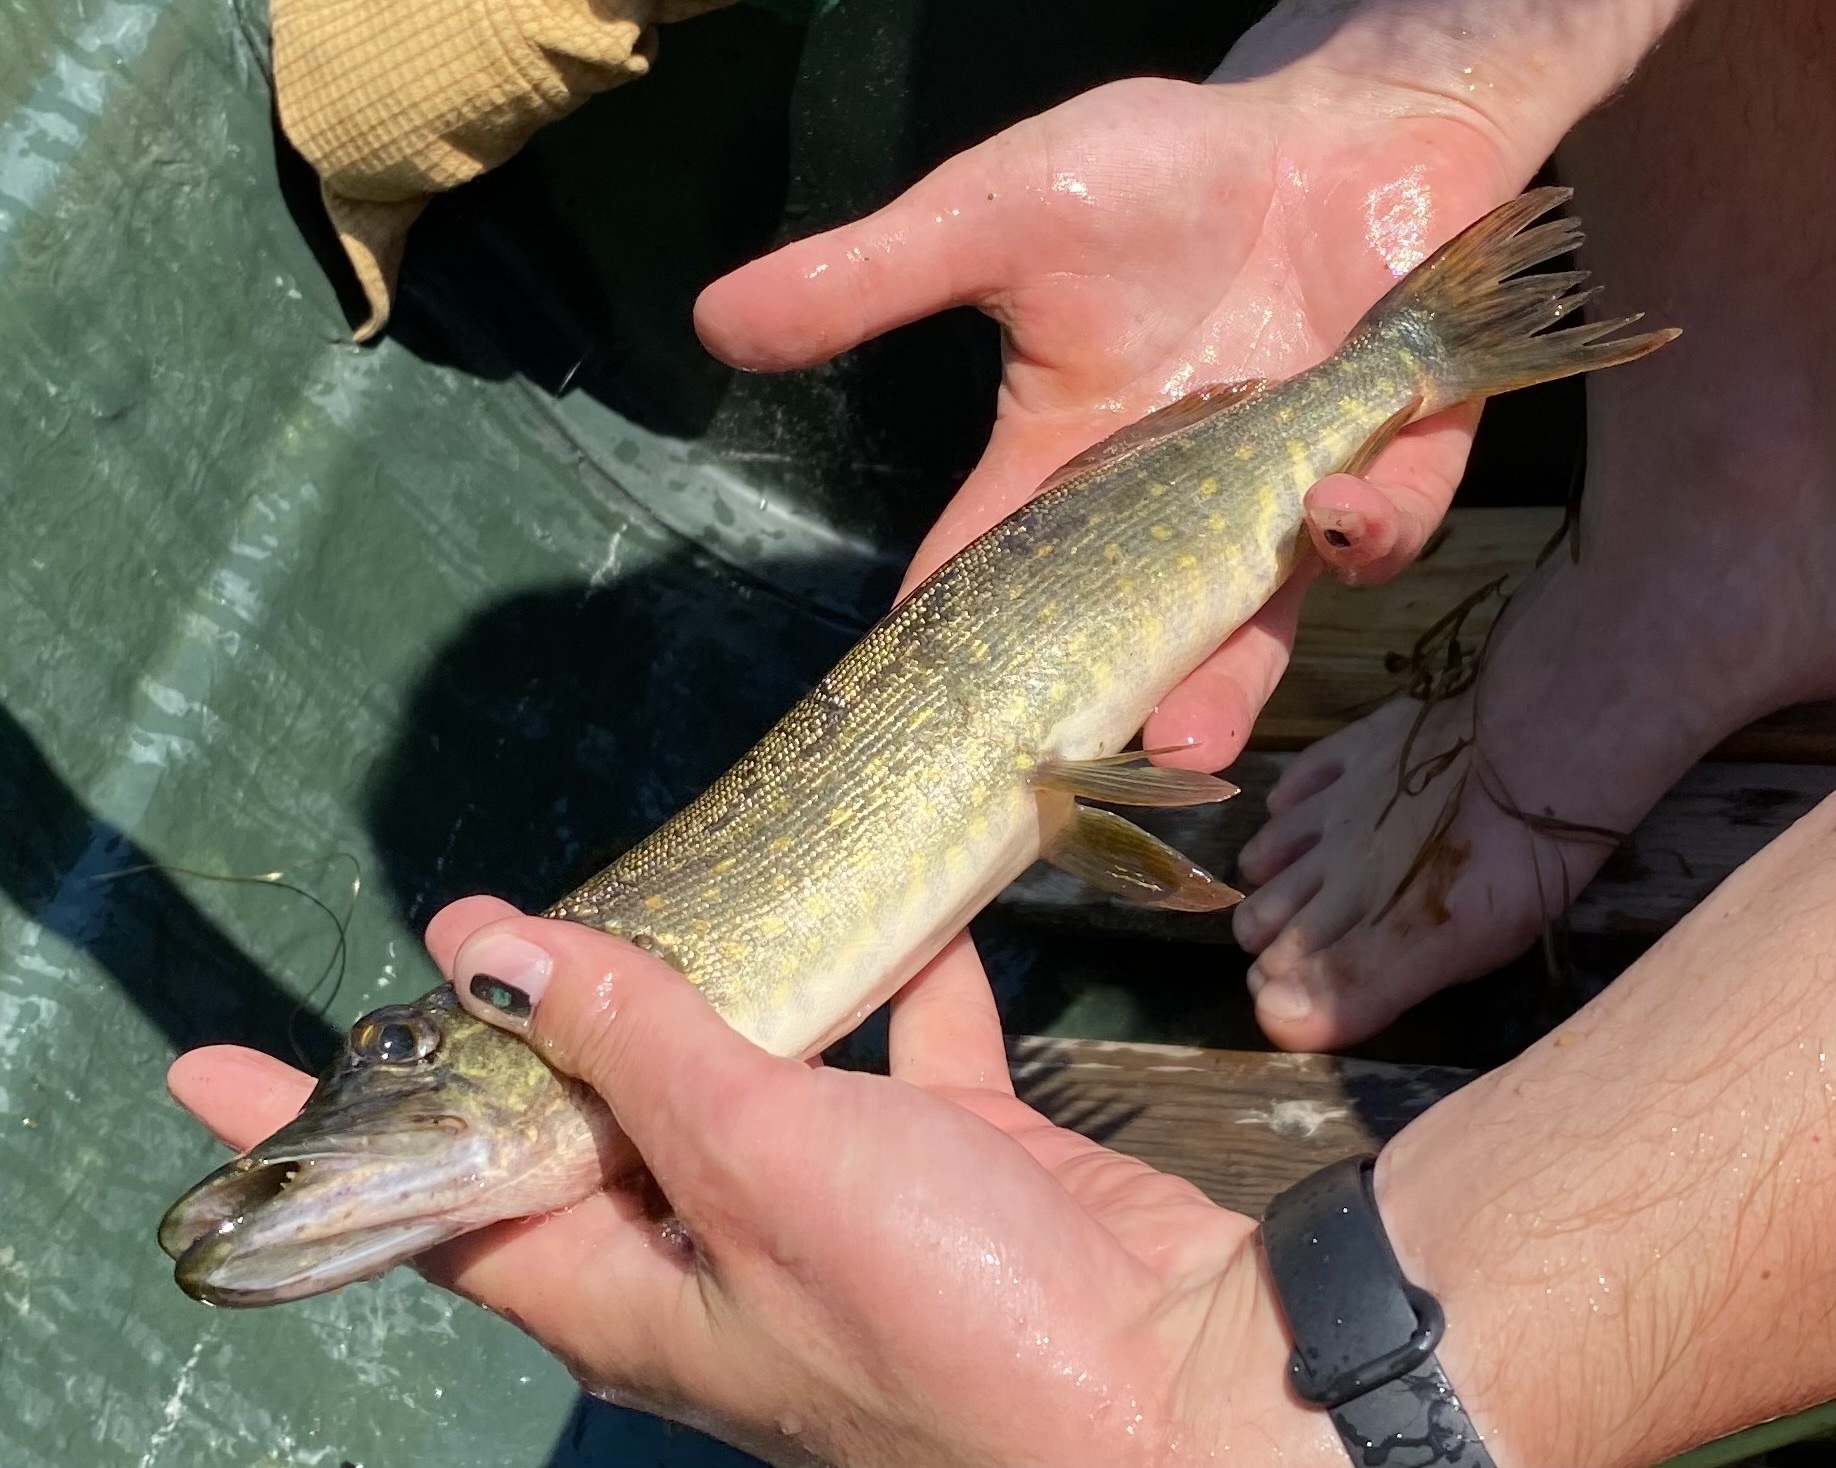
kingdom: Animalia
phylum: Chordata
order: Esociformes
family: Esocidae
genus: Esox
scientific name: Esox lucius
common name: Northern pike
